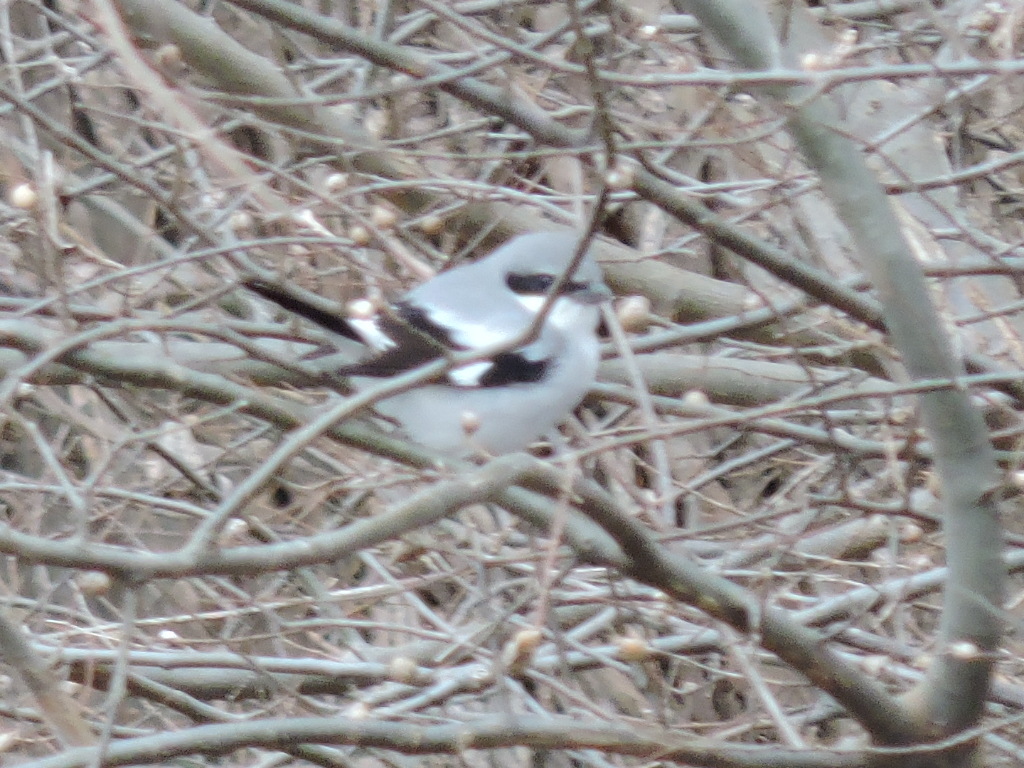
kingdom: Animalia
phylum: Chordata
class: Aves
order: Passeriformes
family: Laniidae
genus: Lanius
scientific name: Lanius ludovicianus
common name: Loggerhead shrike
